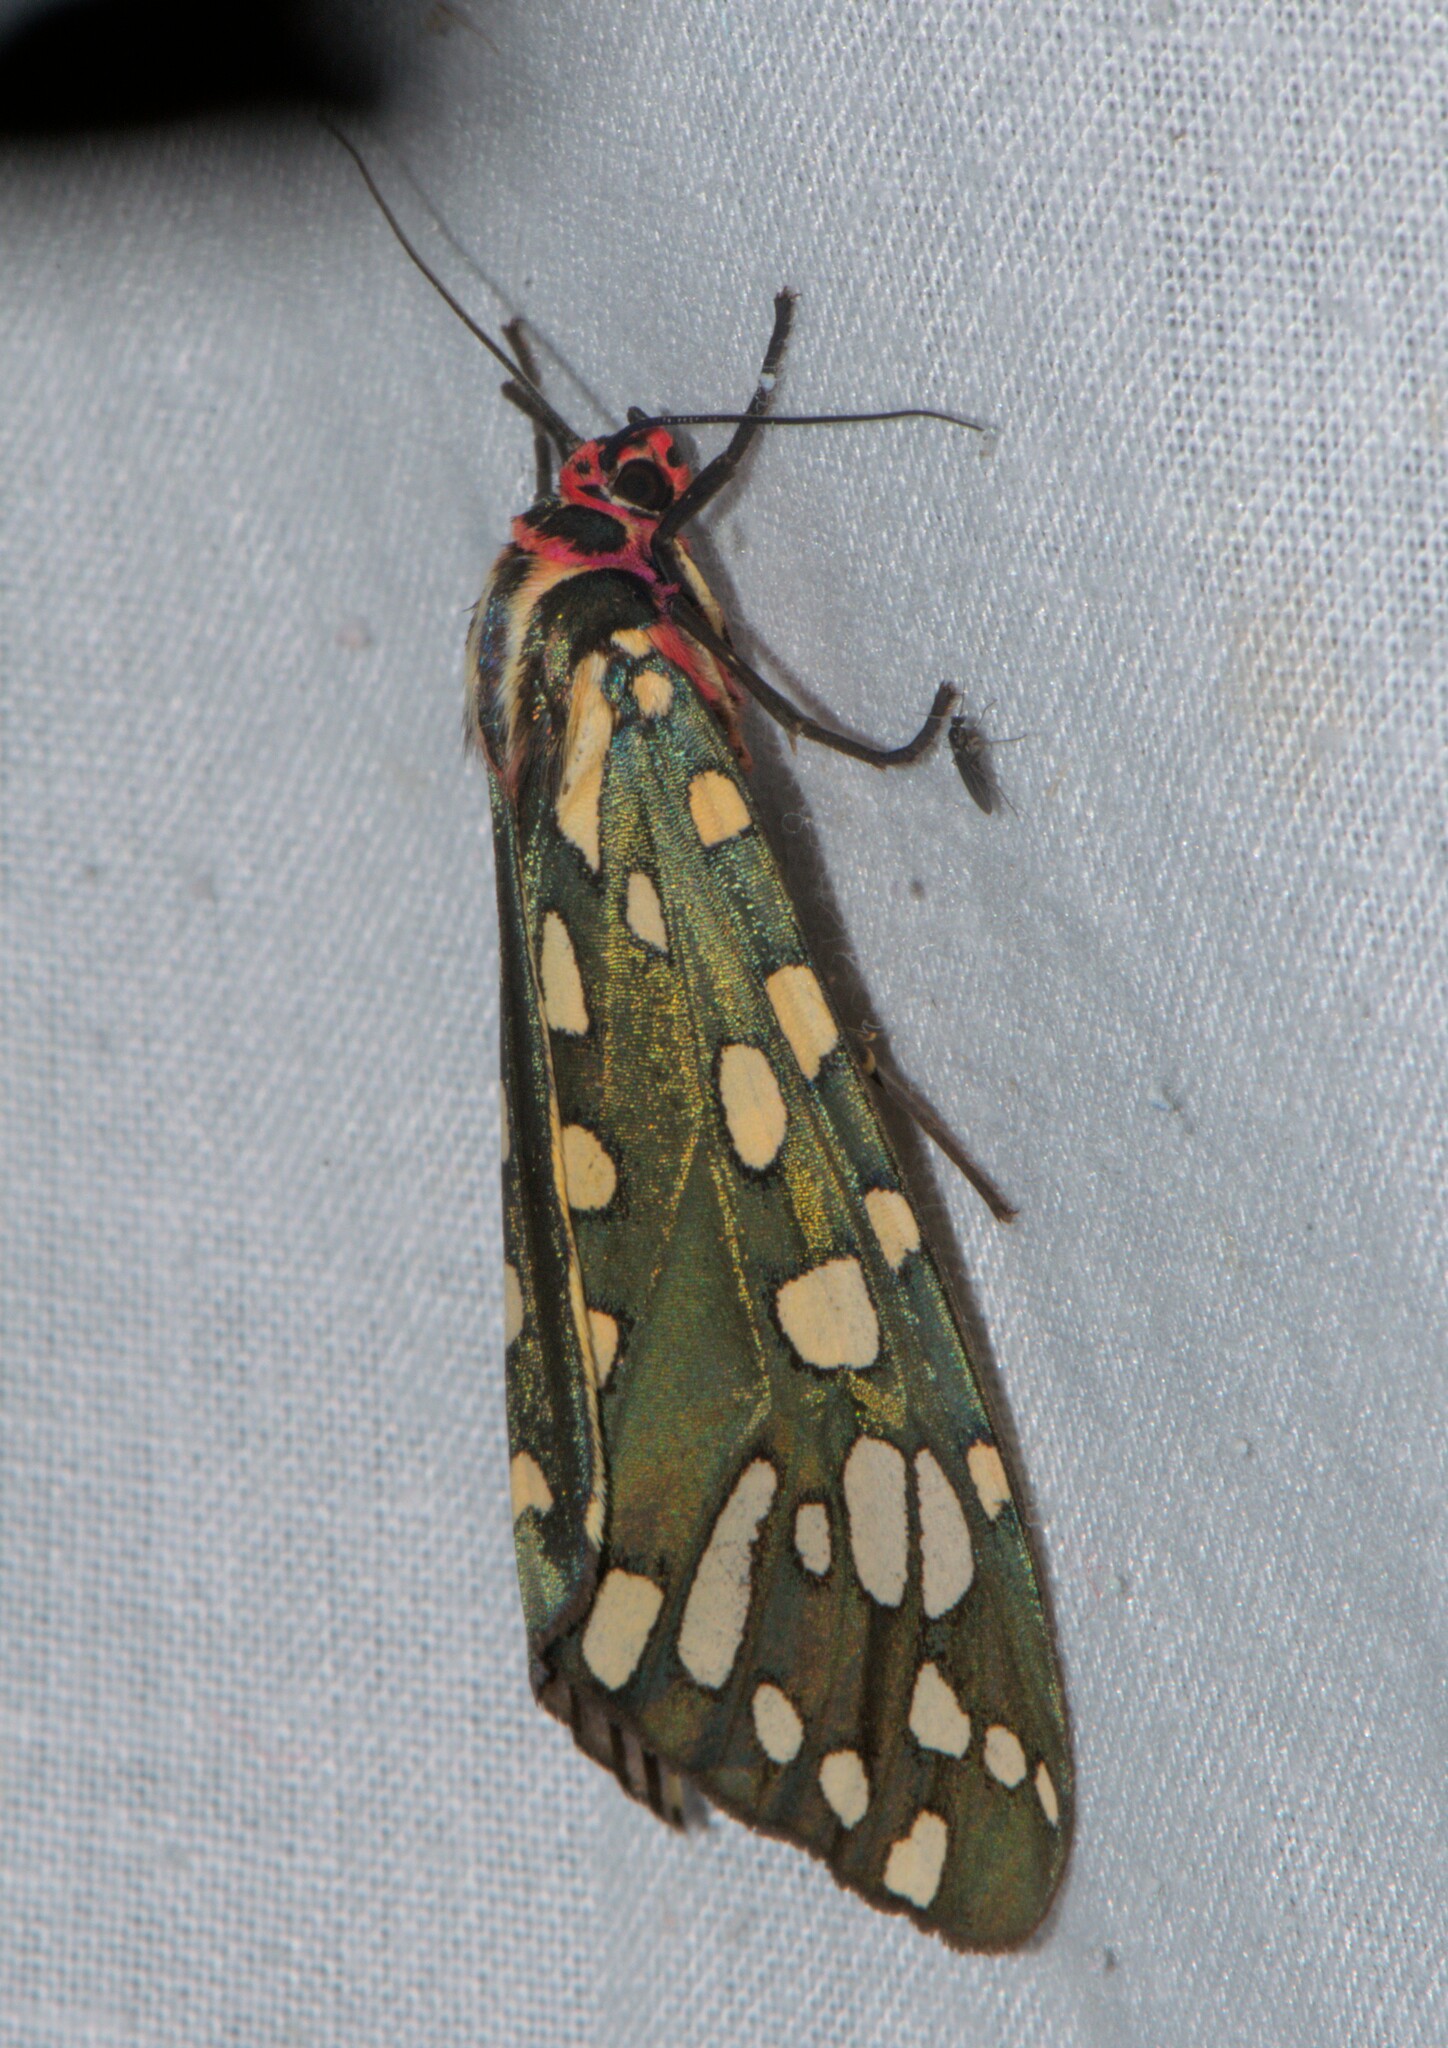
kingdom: Animalia
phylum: Arthropoda
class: Insecta
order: Lepidoptera
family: Erebidae
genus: Callindra
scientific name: Callindra principalis
